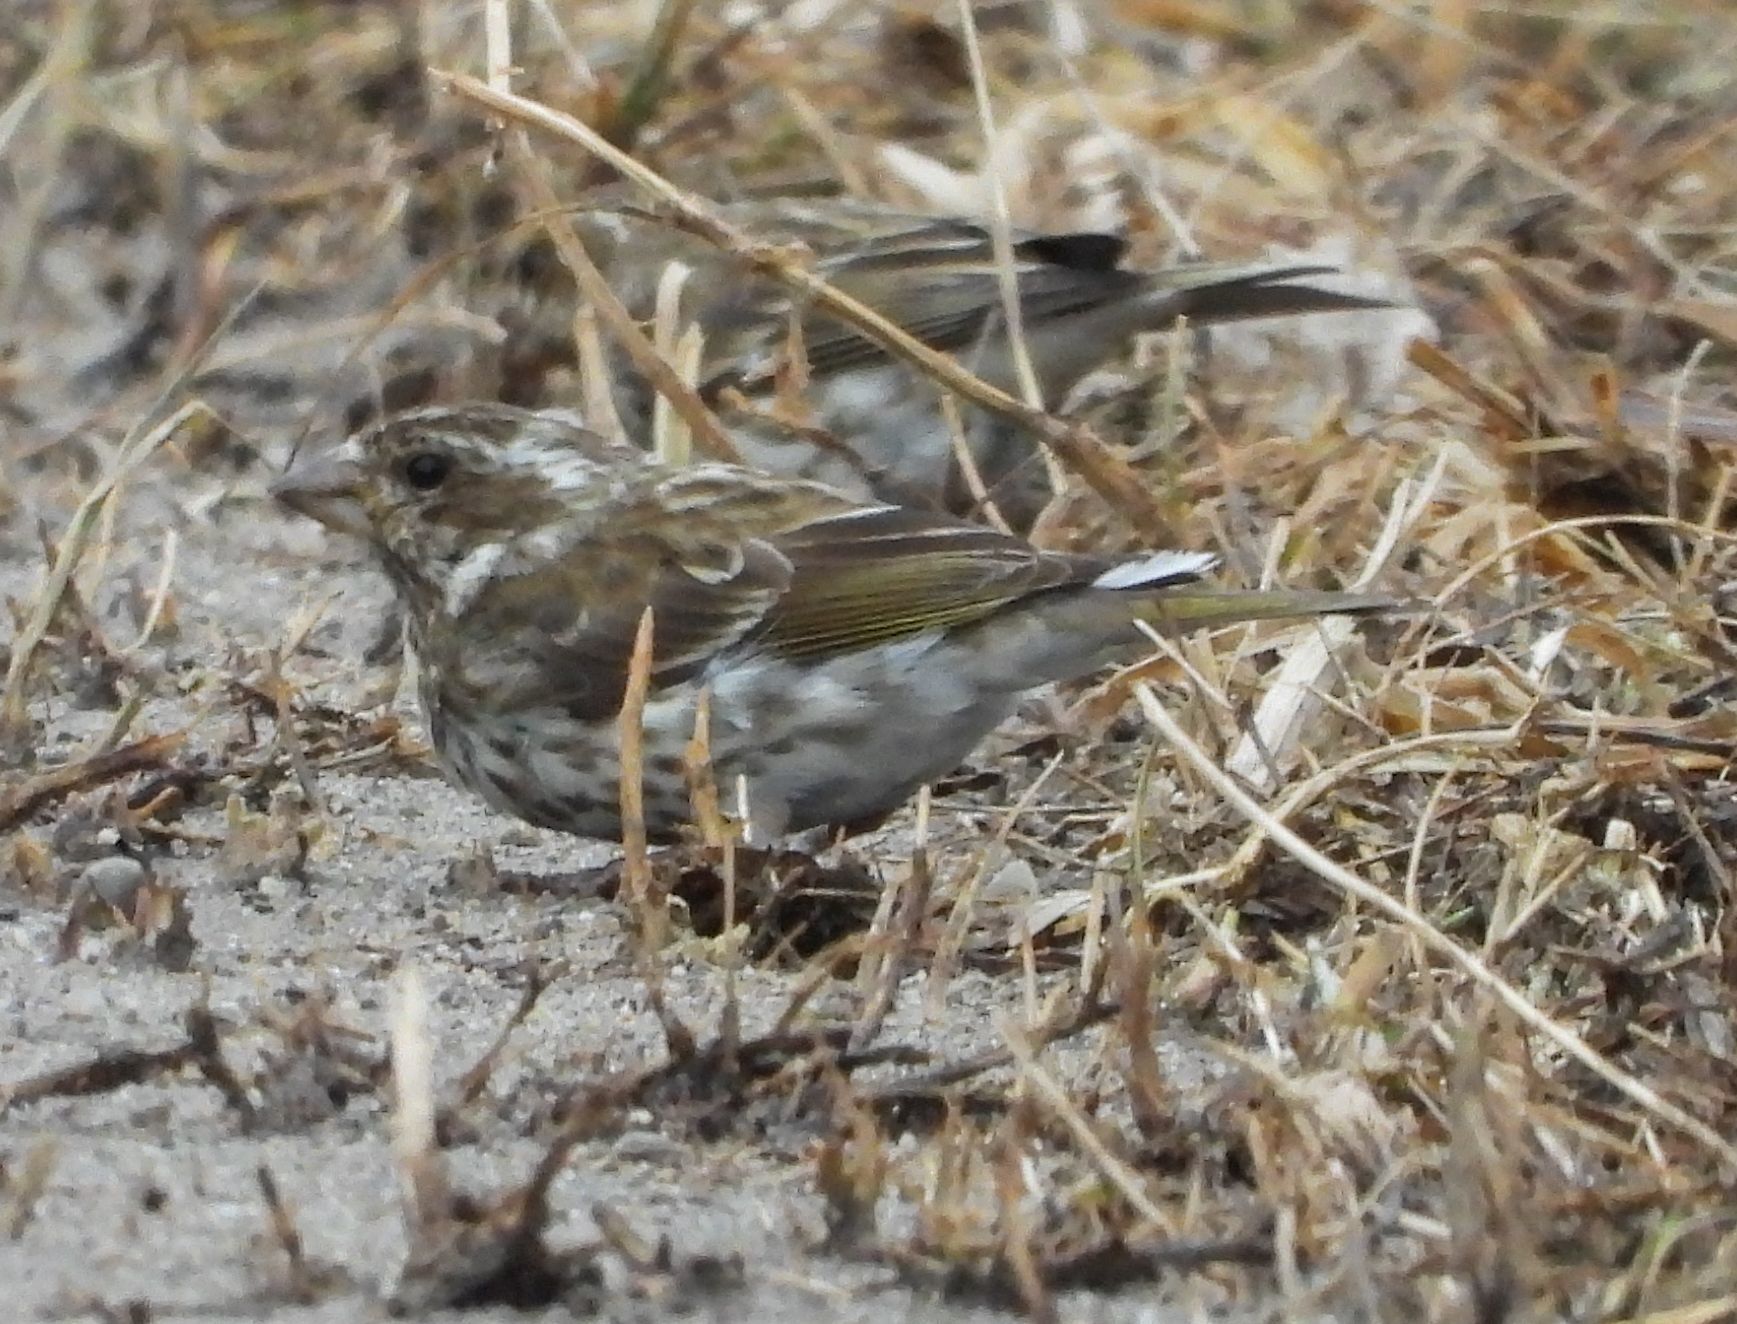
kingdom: Animalia
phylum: Chordata
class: Aves
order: Passeriformes
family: Fringillidae
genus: Haemorhous
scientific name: Haemorhous purpureus
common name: Purple finch
